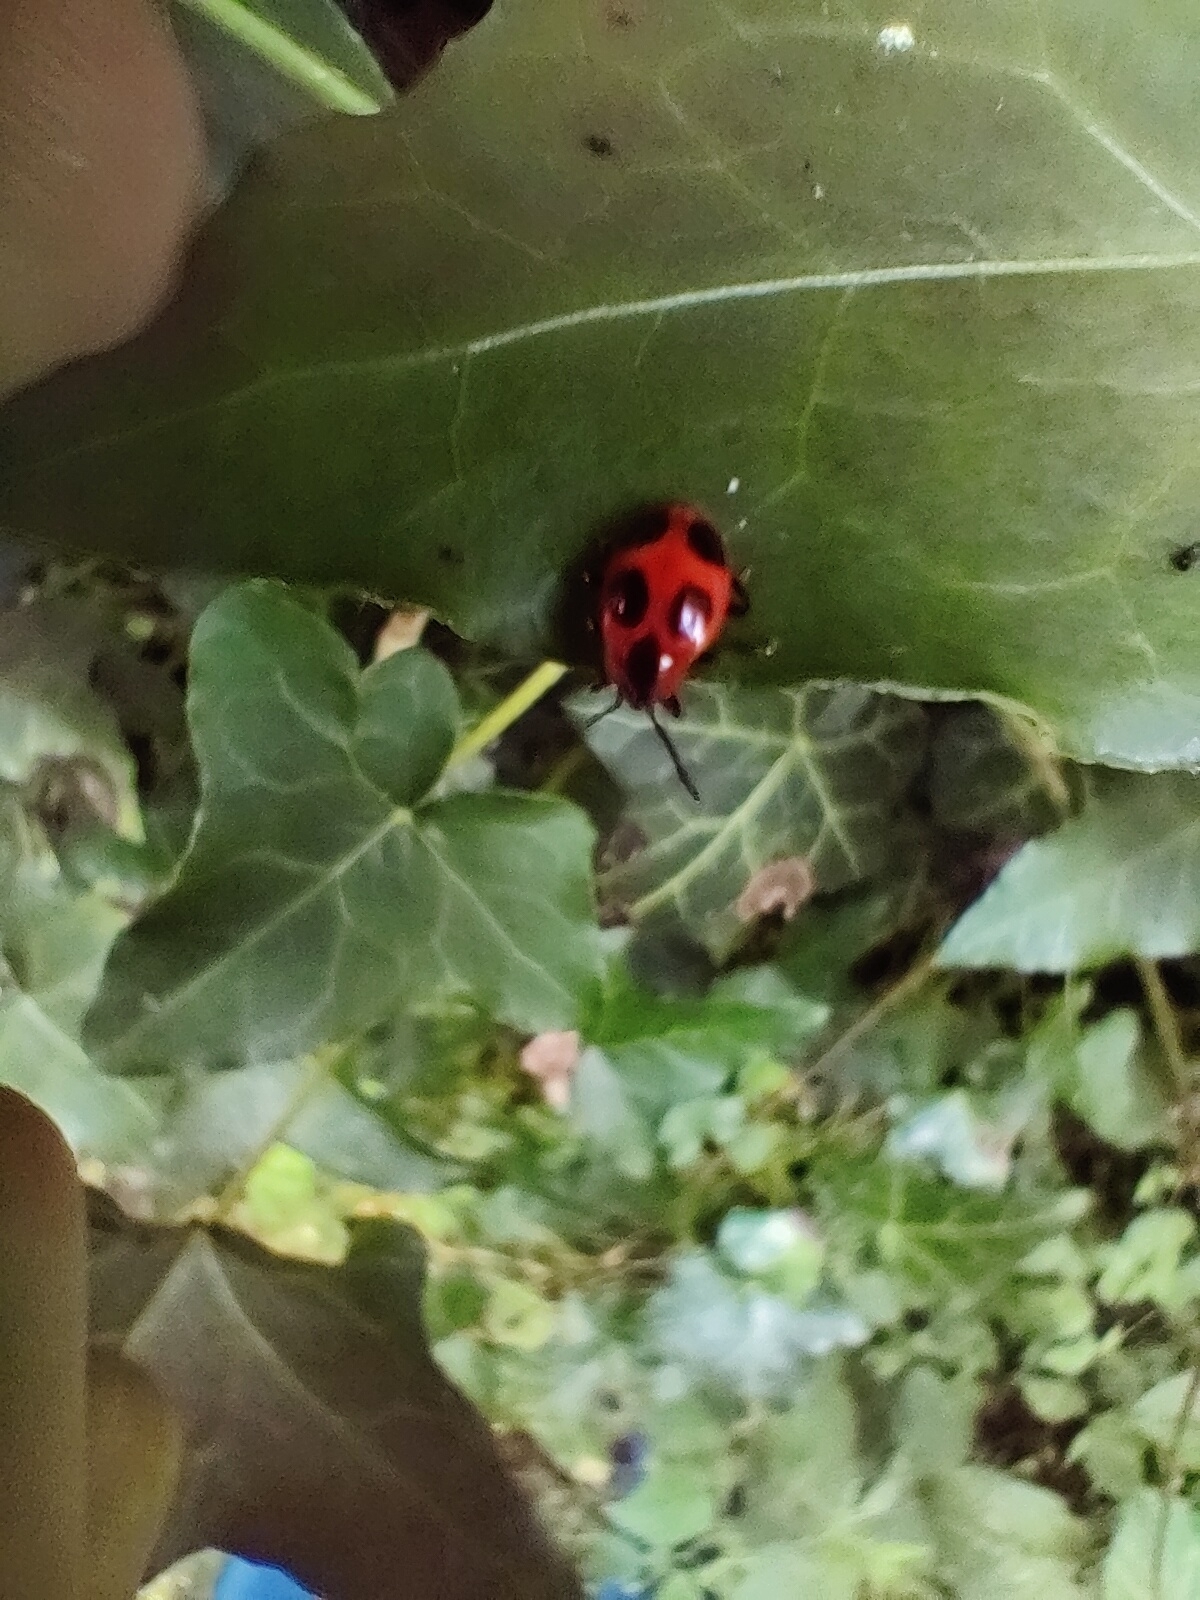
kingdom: Animalia
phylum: Arthropoda
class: Insecta
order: Coleoptera
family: Endomychidae
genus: Endomychus
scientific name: Endomychus coccineus
